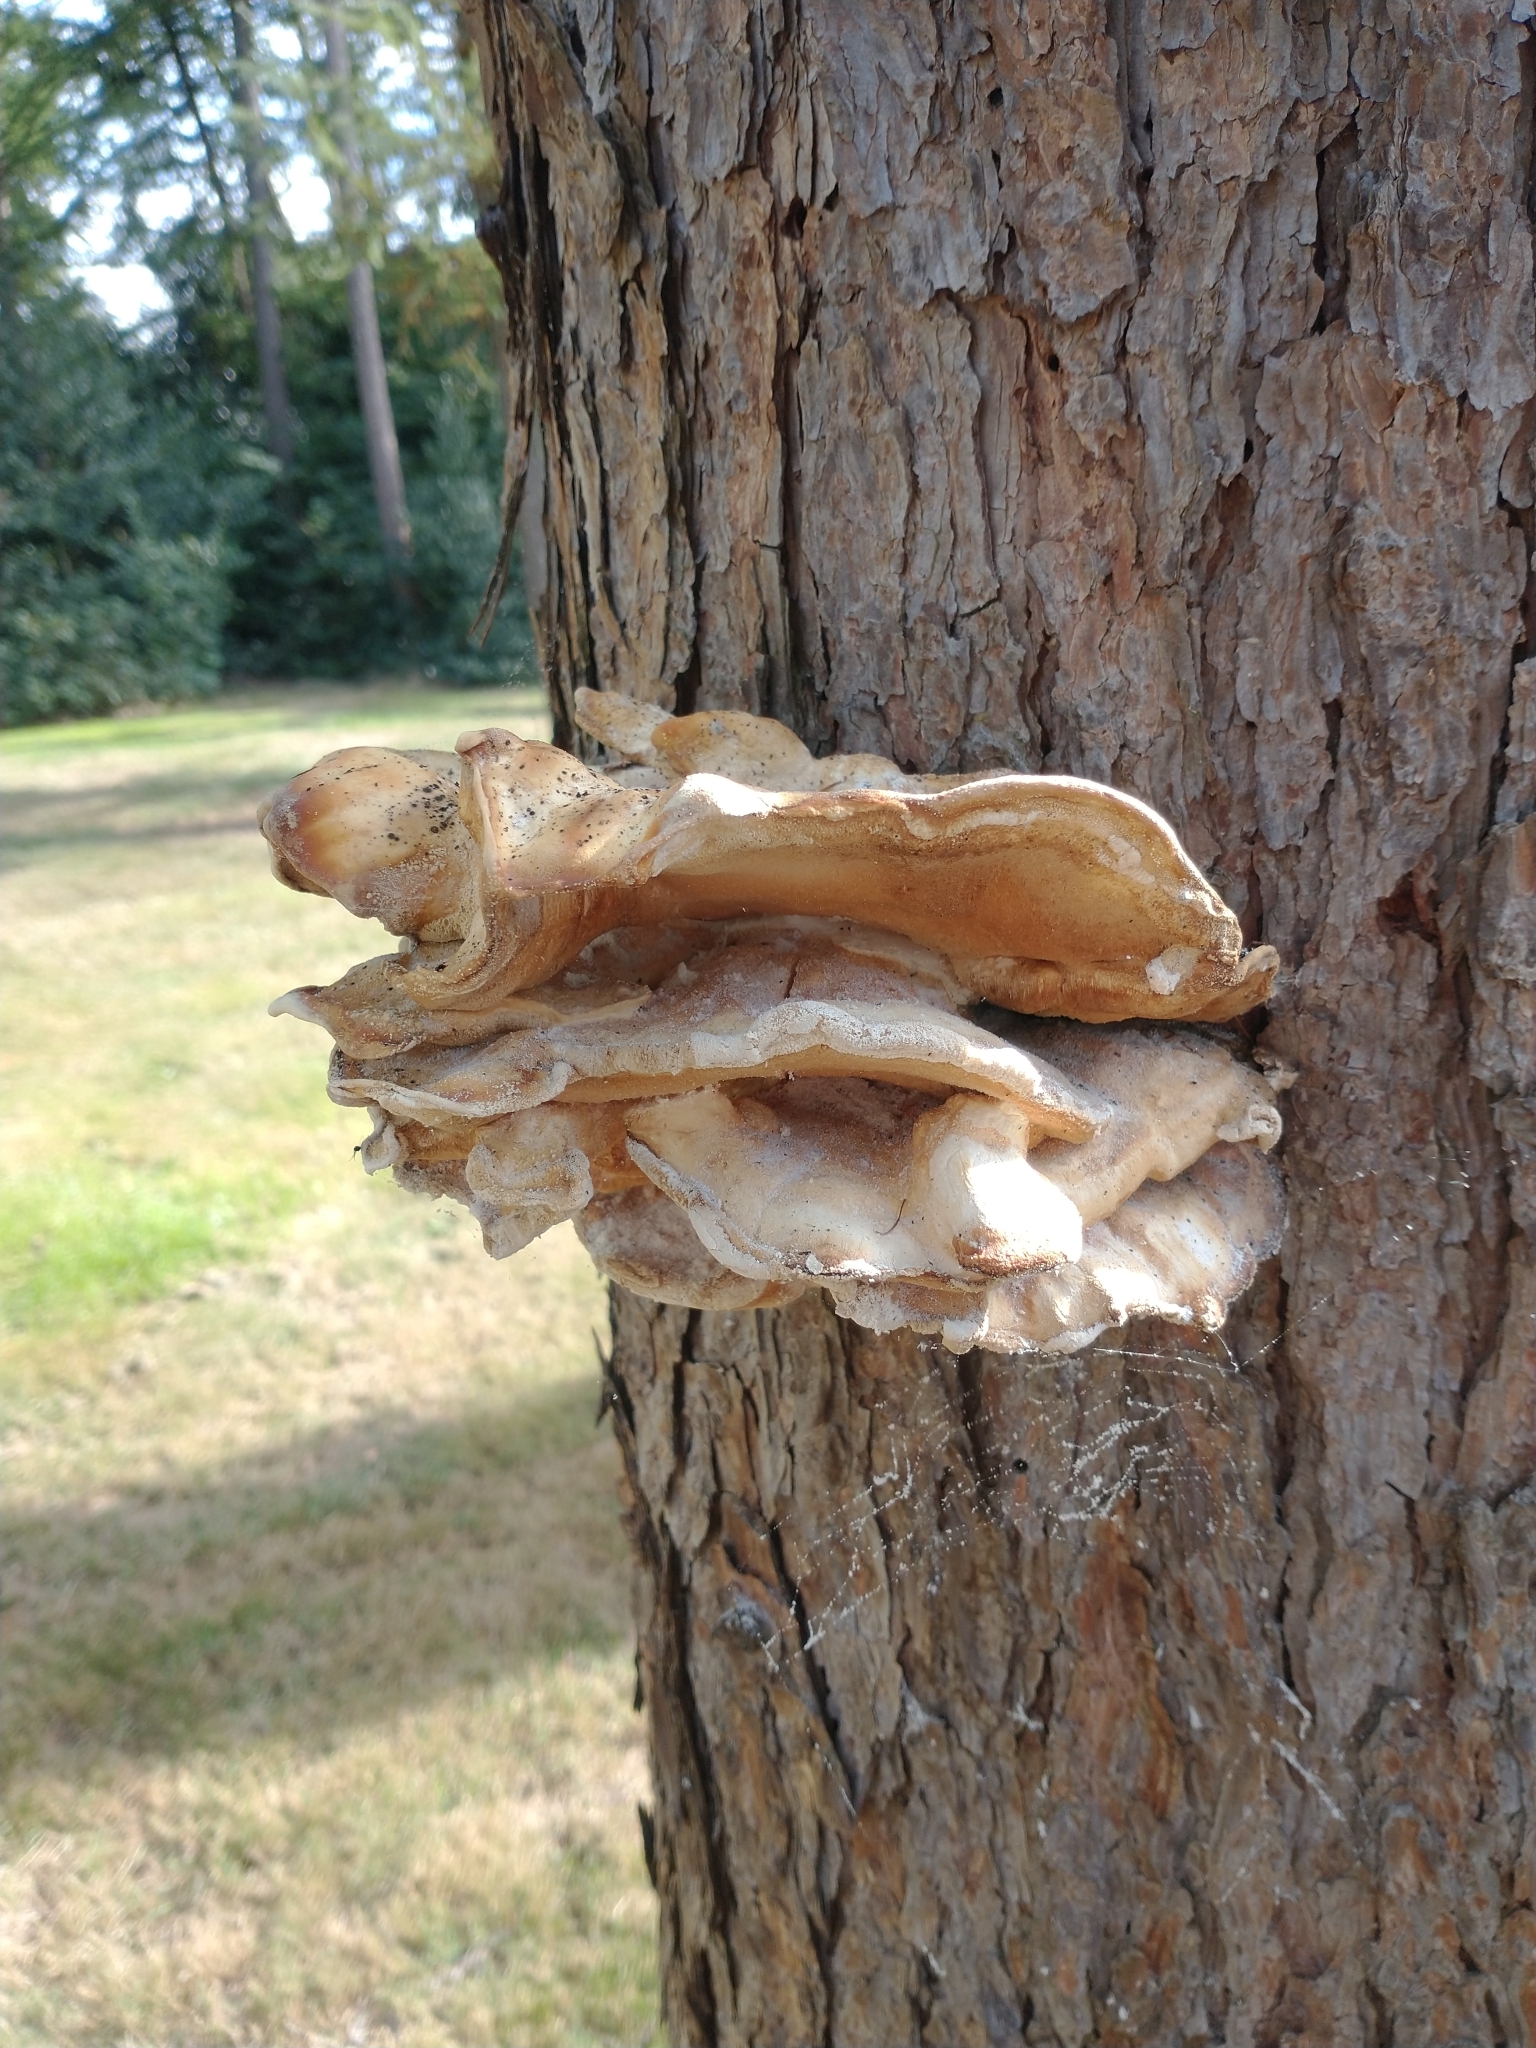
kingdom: Fungi
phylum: Basidiomycota
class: Agaricomycetes
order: Polyporales
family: Laetiporaceae
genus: Laetiporus
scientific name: Laetiporus sulphureus
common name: Chicken of the woods
